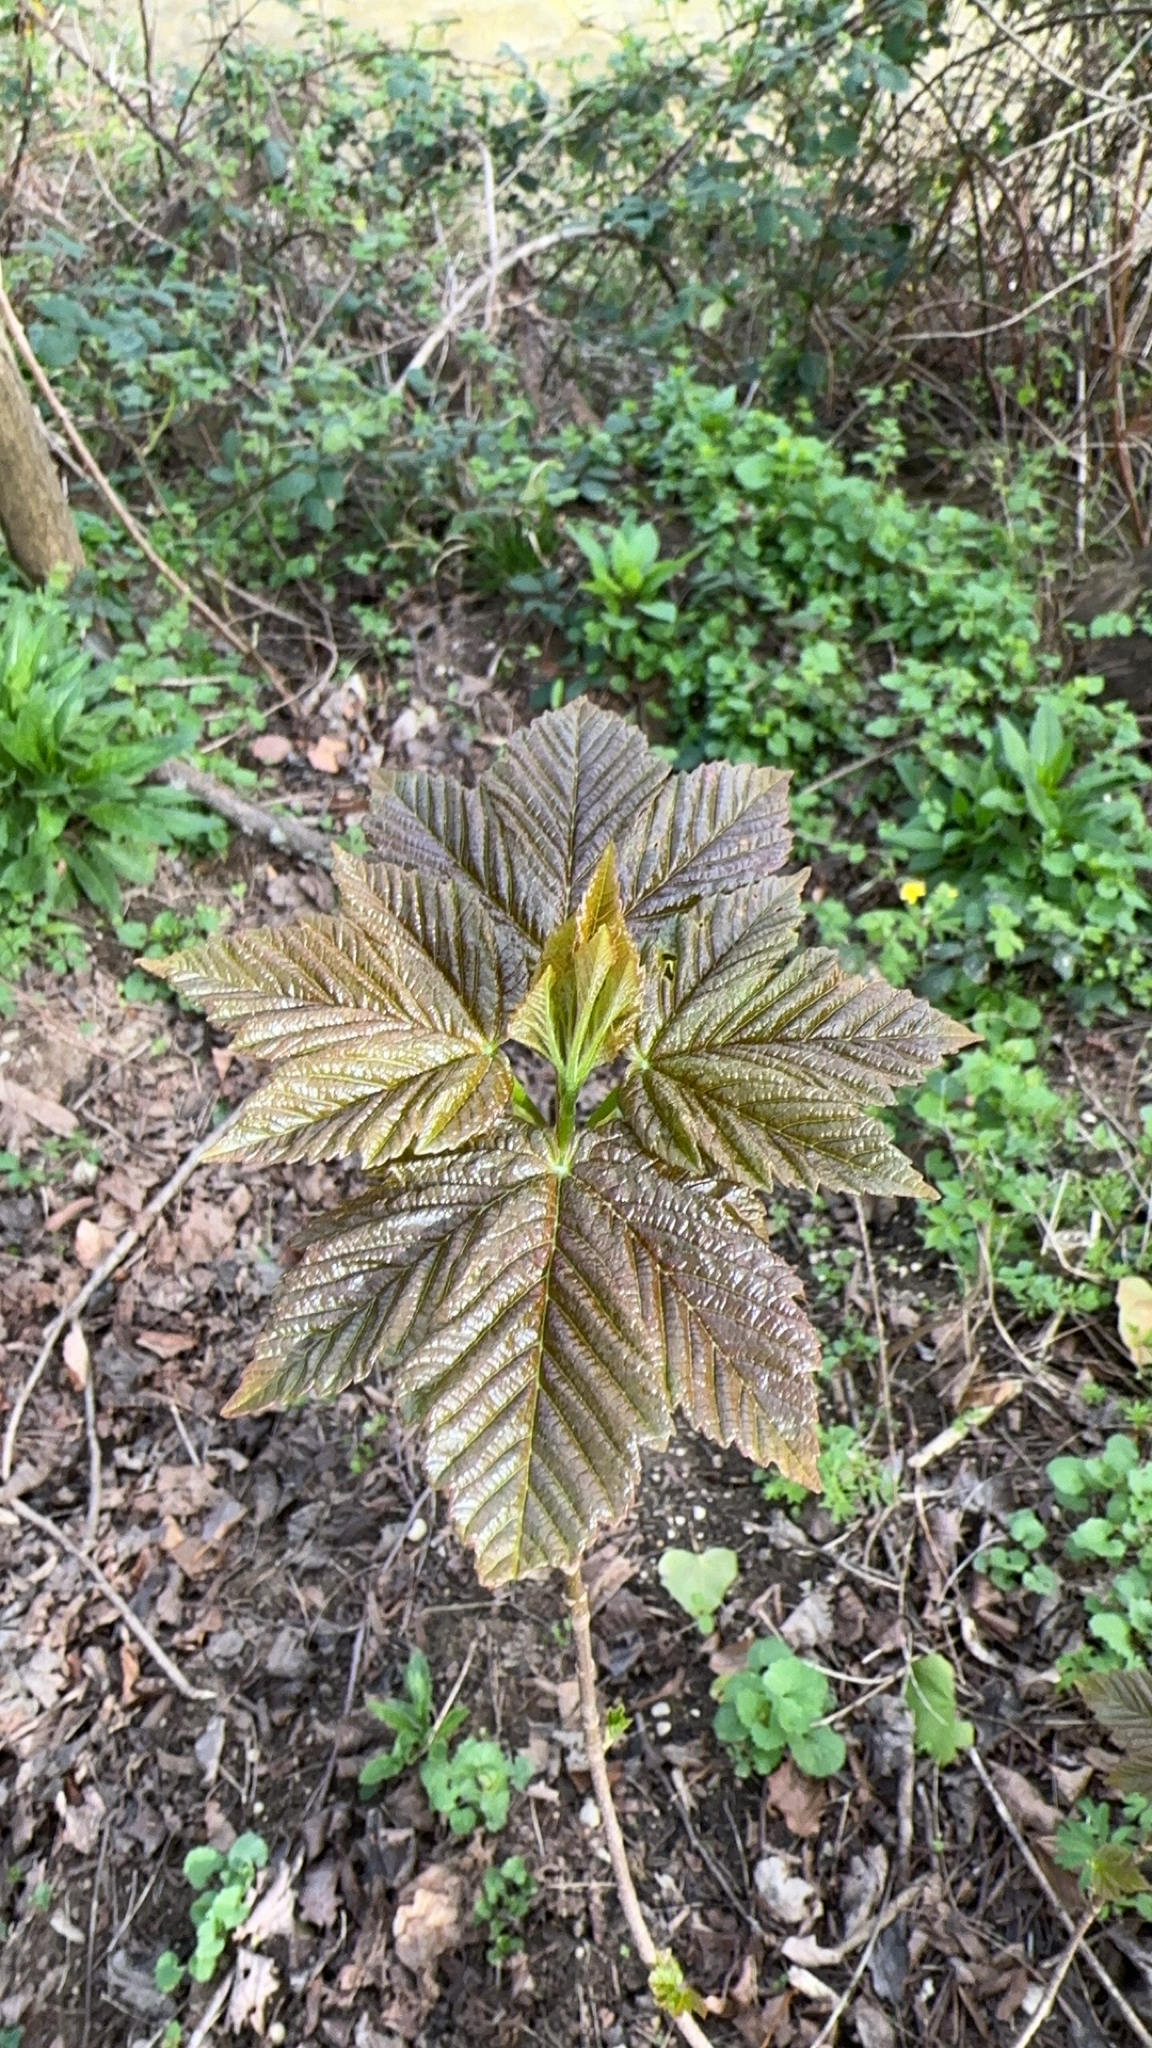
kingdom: Plantae
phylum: Tracheophyta
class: Magnoliopsida
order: Sapindales
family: Sapindaceae
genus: Acer
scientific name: Acer pseudoplatanus
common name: Sycamore
